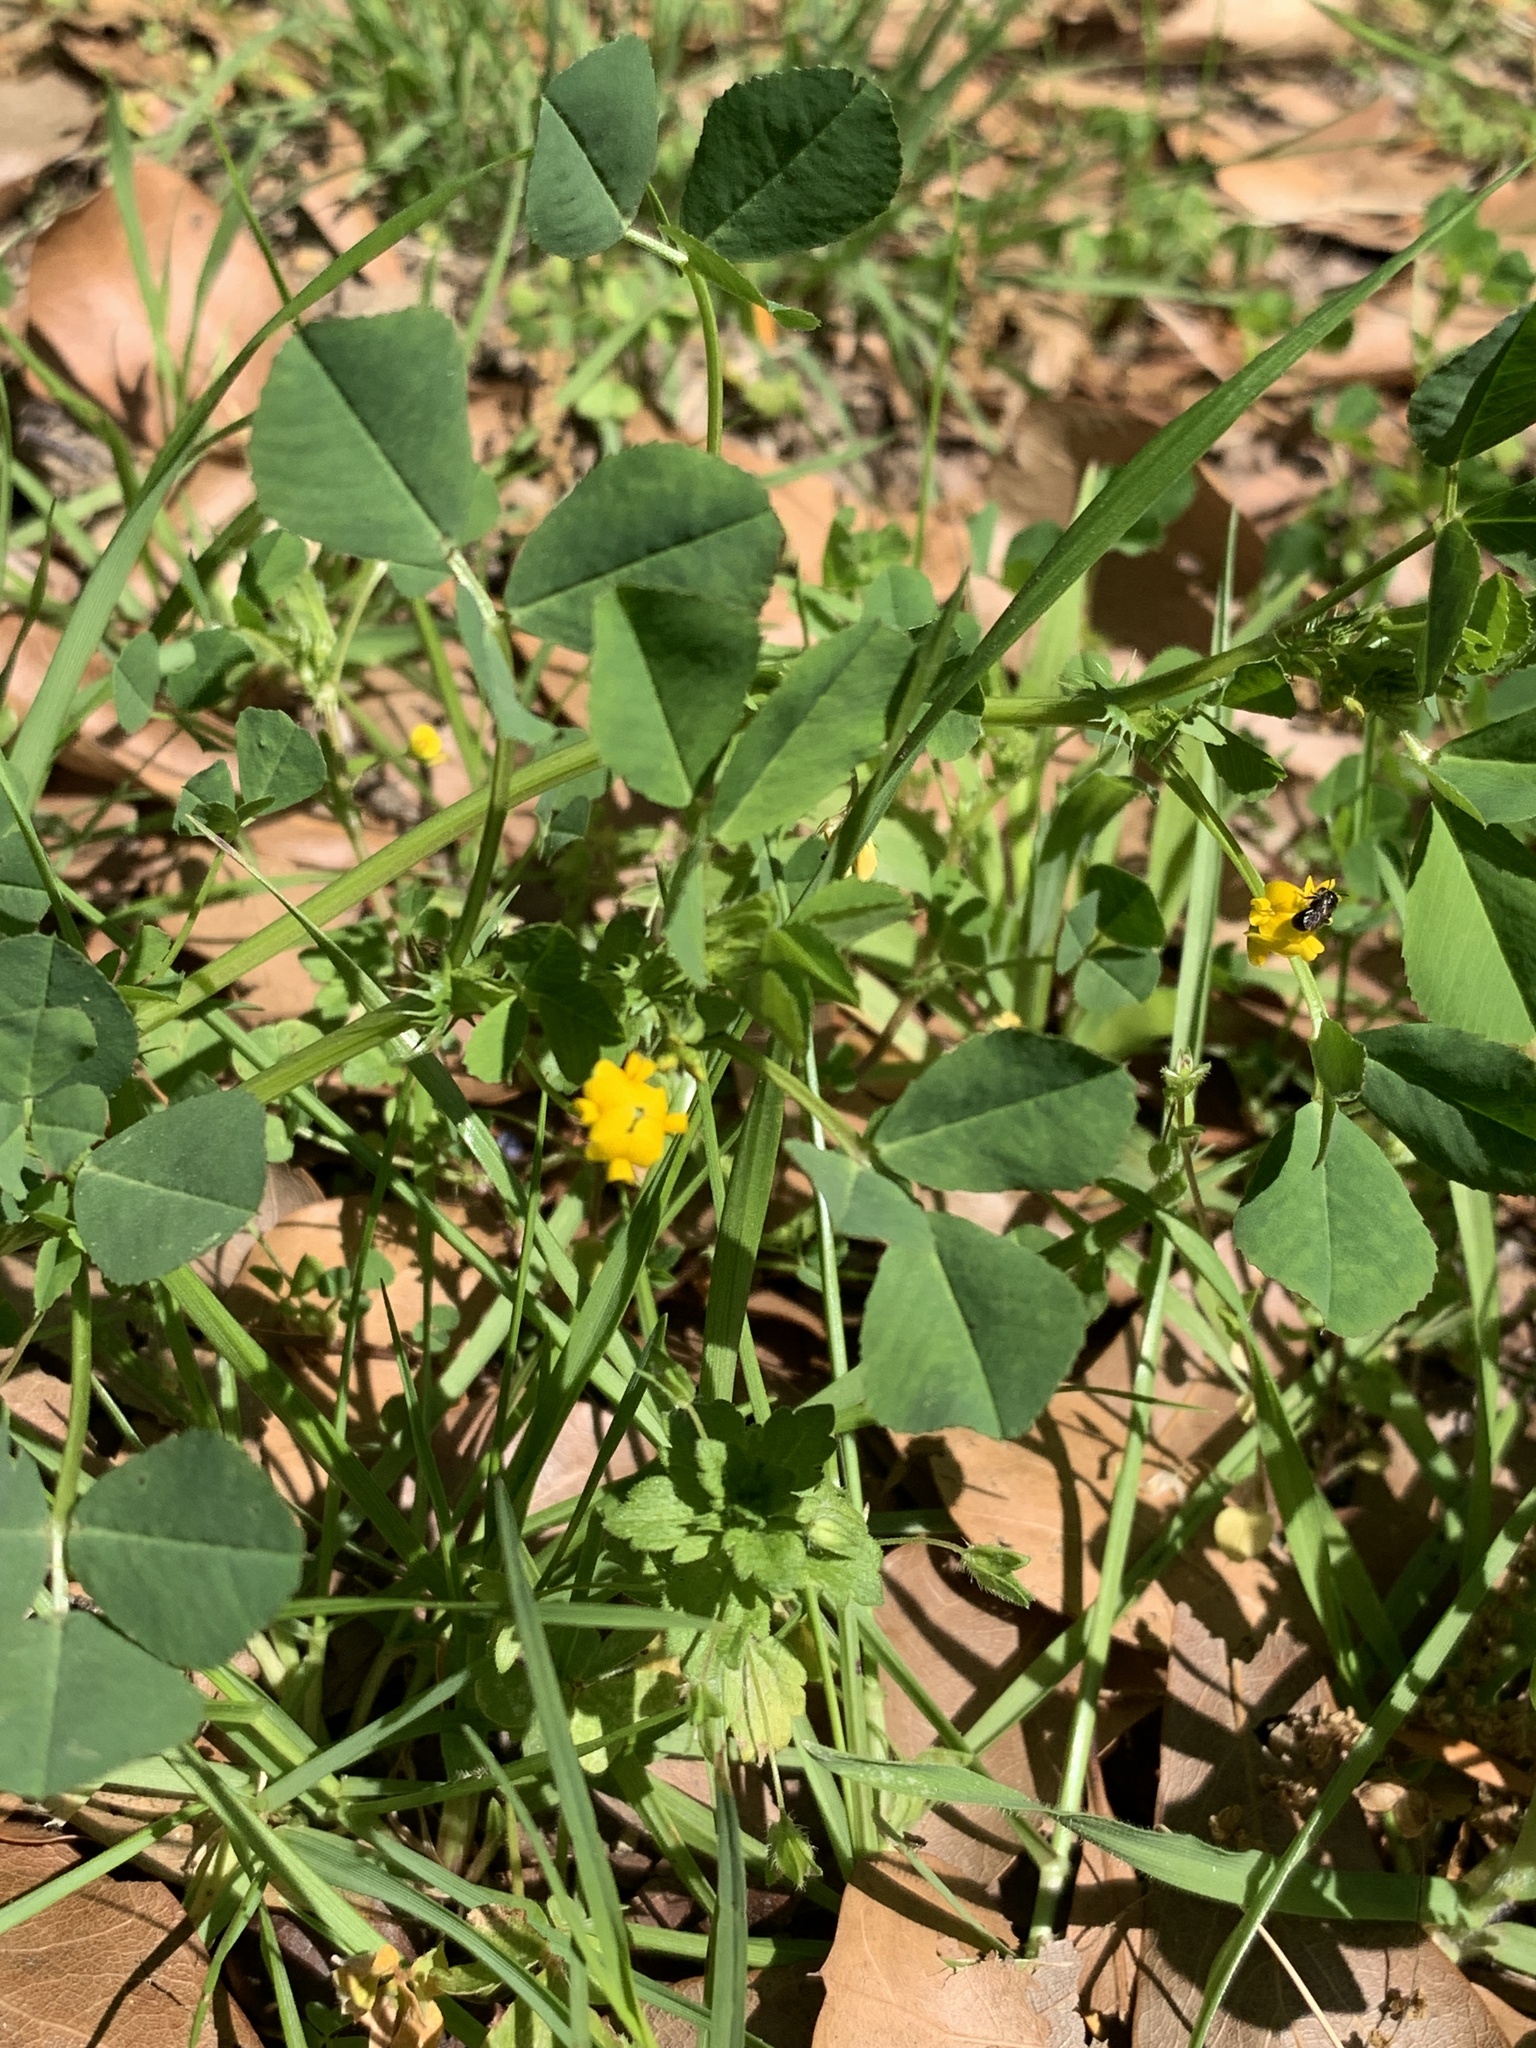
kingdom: Plantae
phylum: Tracheophyta
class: Magnoliopsida
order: Fabales
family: Fabaceae
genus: Medicago
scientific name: Medicago polymorpha
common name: Burclover
